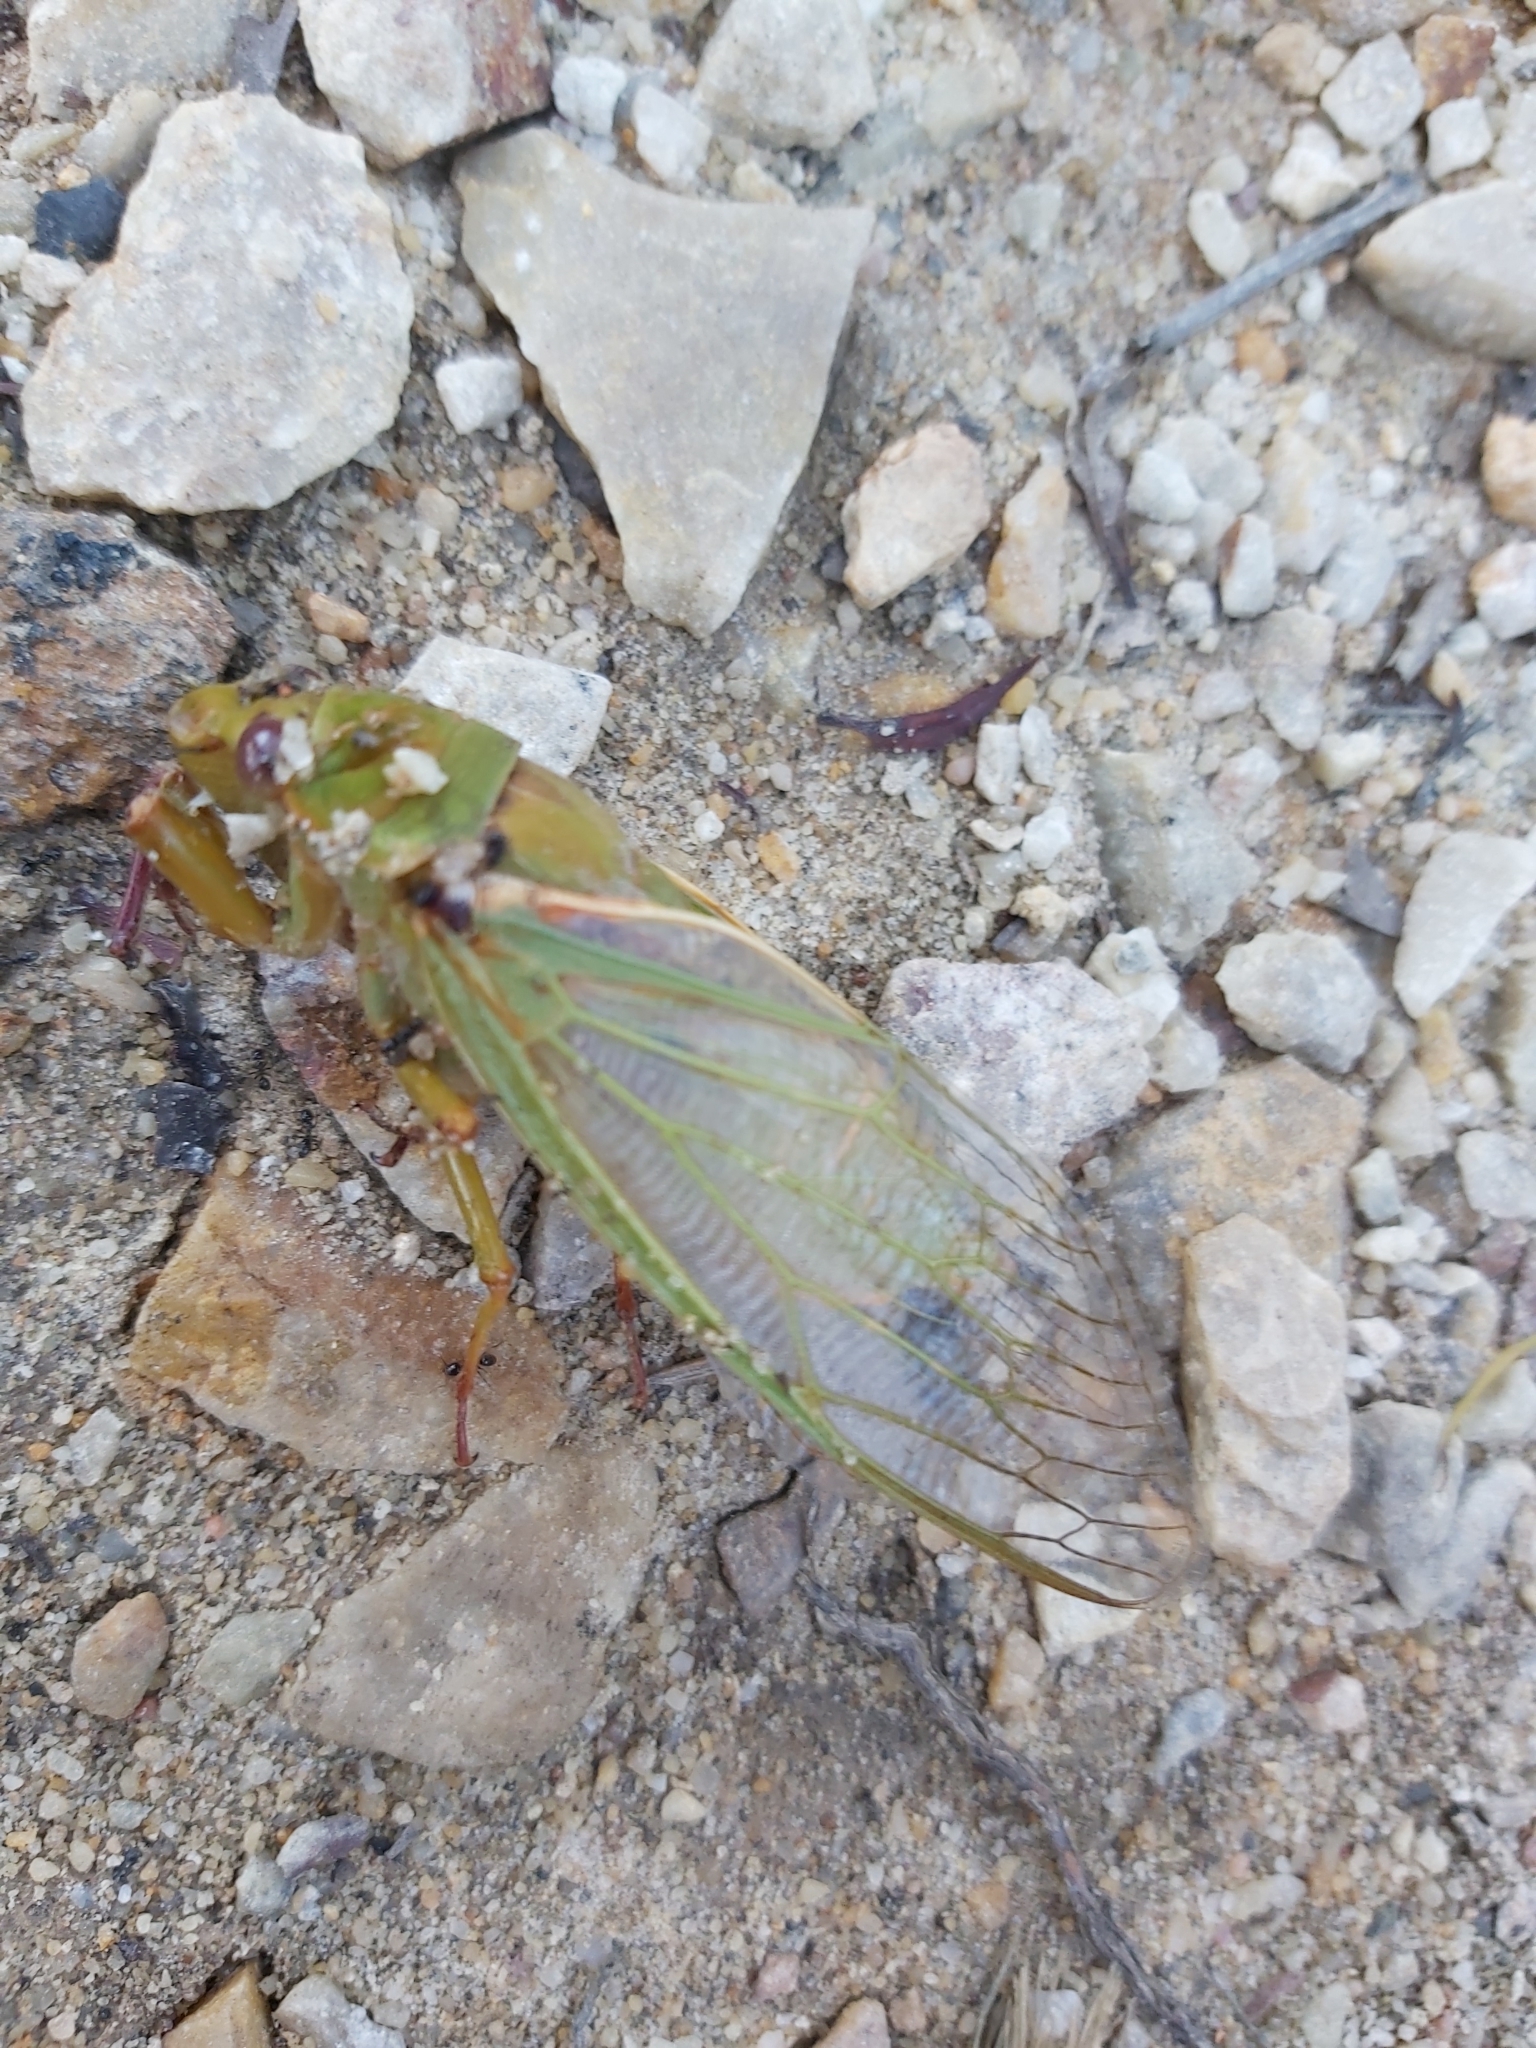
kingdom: Animalia
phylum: Arthropoda
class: Insecta
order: Hemiptera
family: Cicadidae
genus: Cyclochila
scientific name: Cyclochila australasiae
